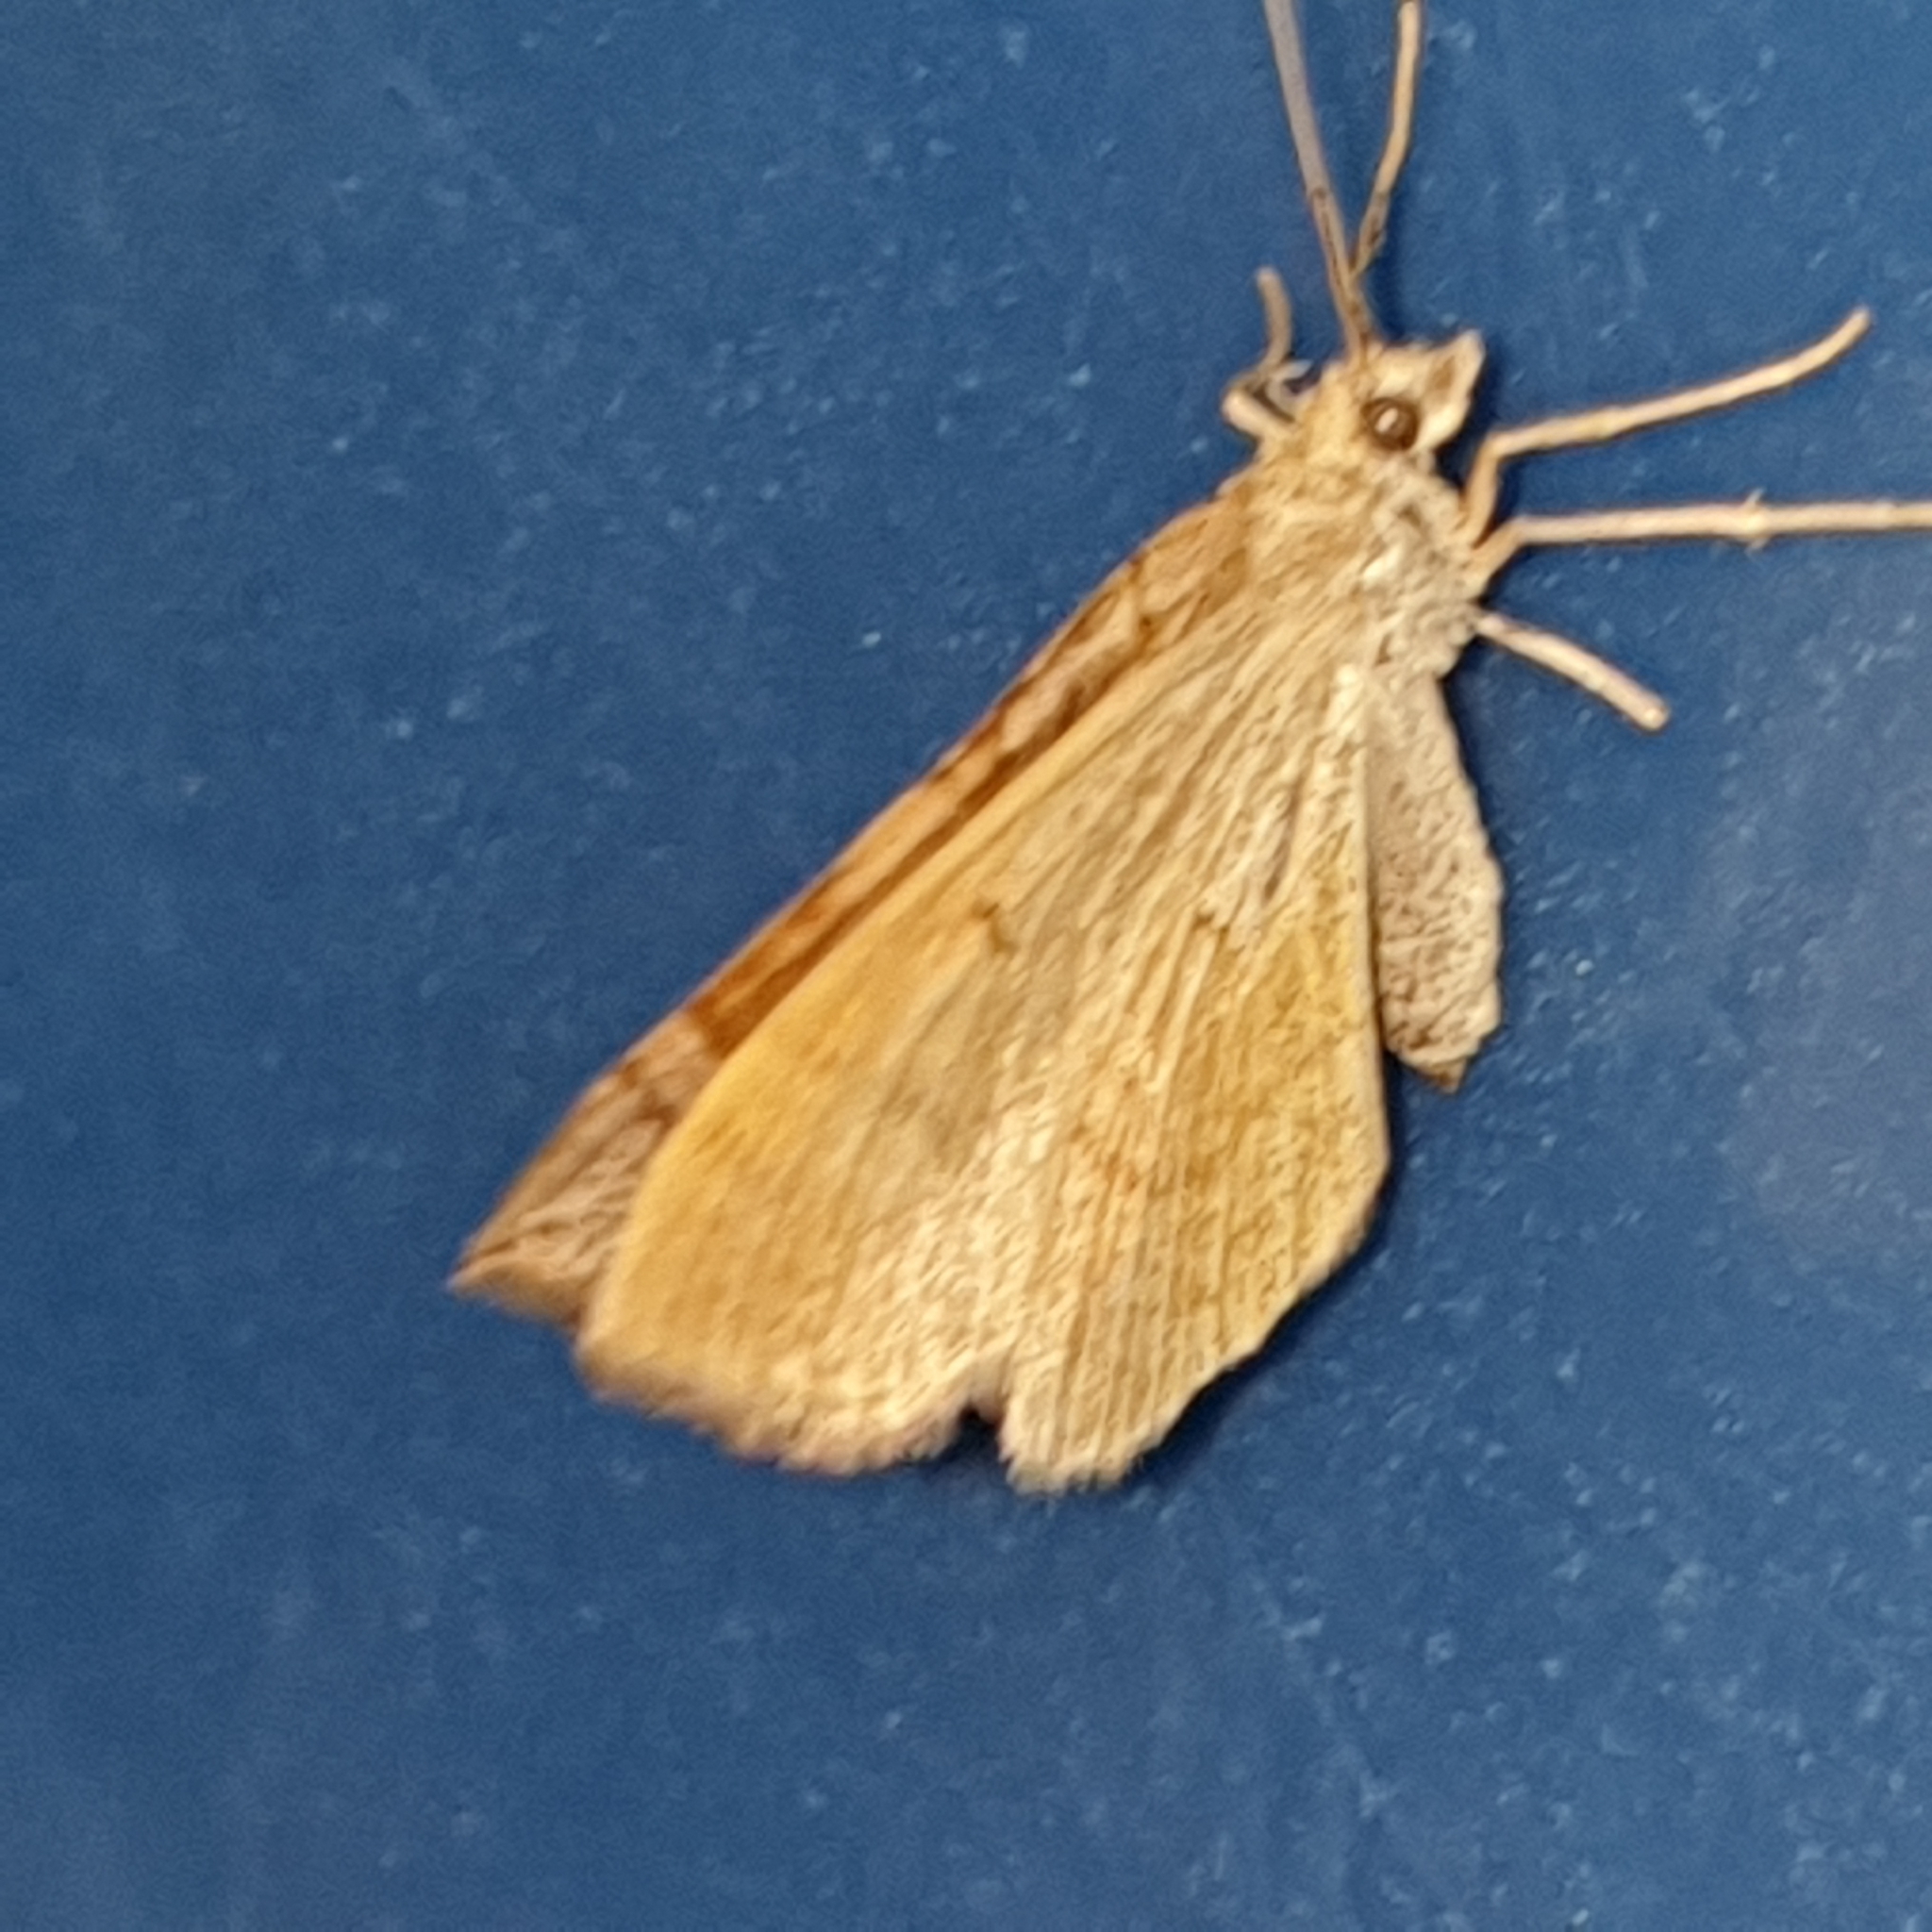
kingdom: Animalia
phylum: Arthropoda
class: Insecta
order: Lepidoptera
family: Geometridae
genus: Scotopteryx
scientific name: Scotopteryx chenopodiata
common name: Shaded broad-bar
